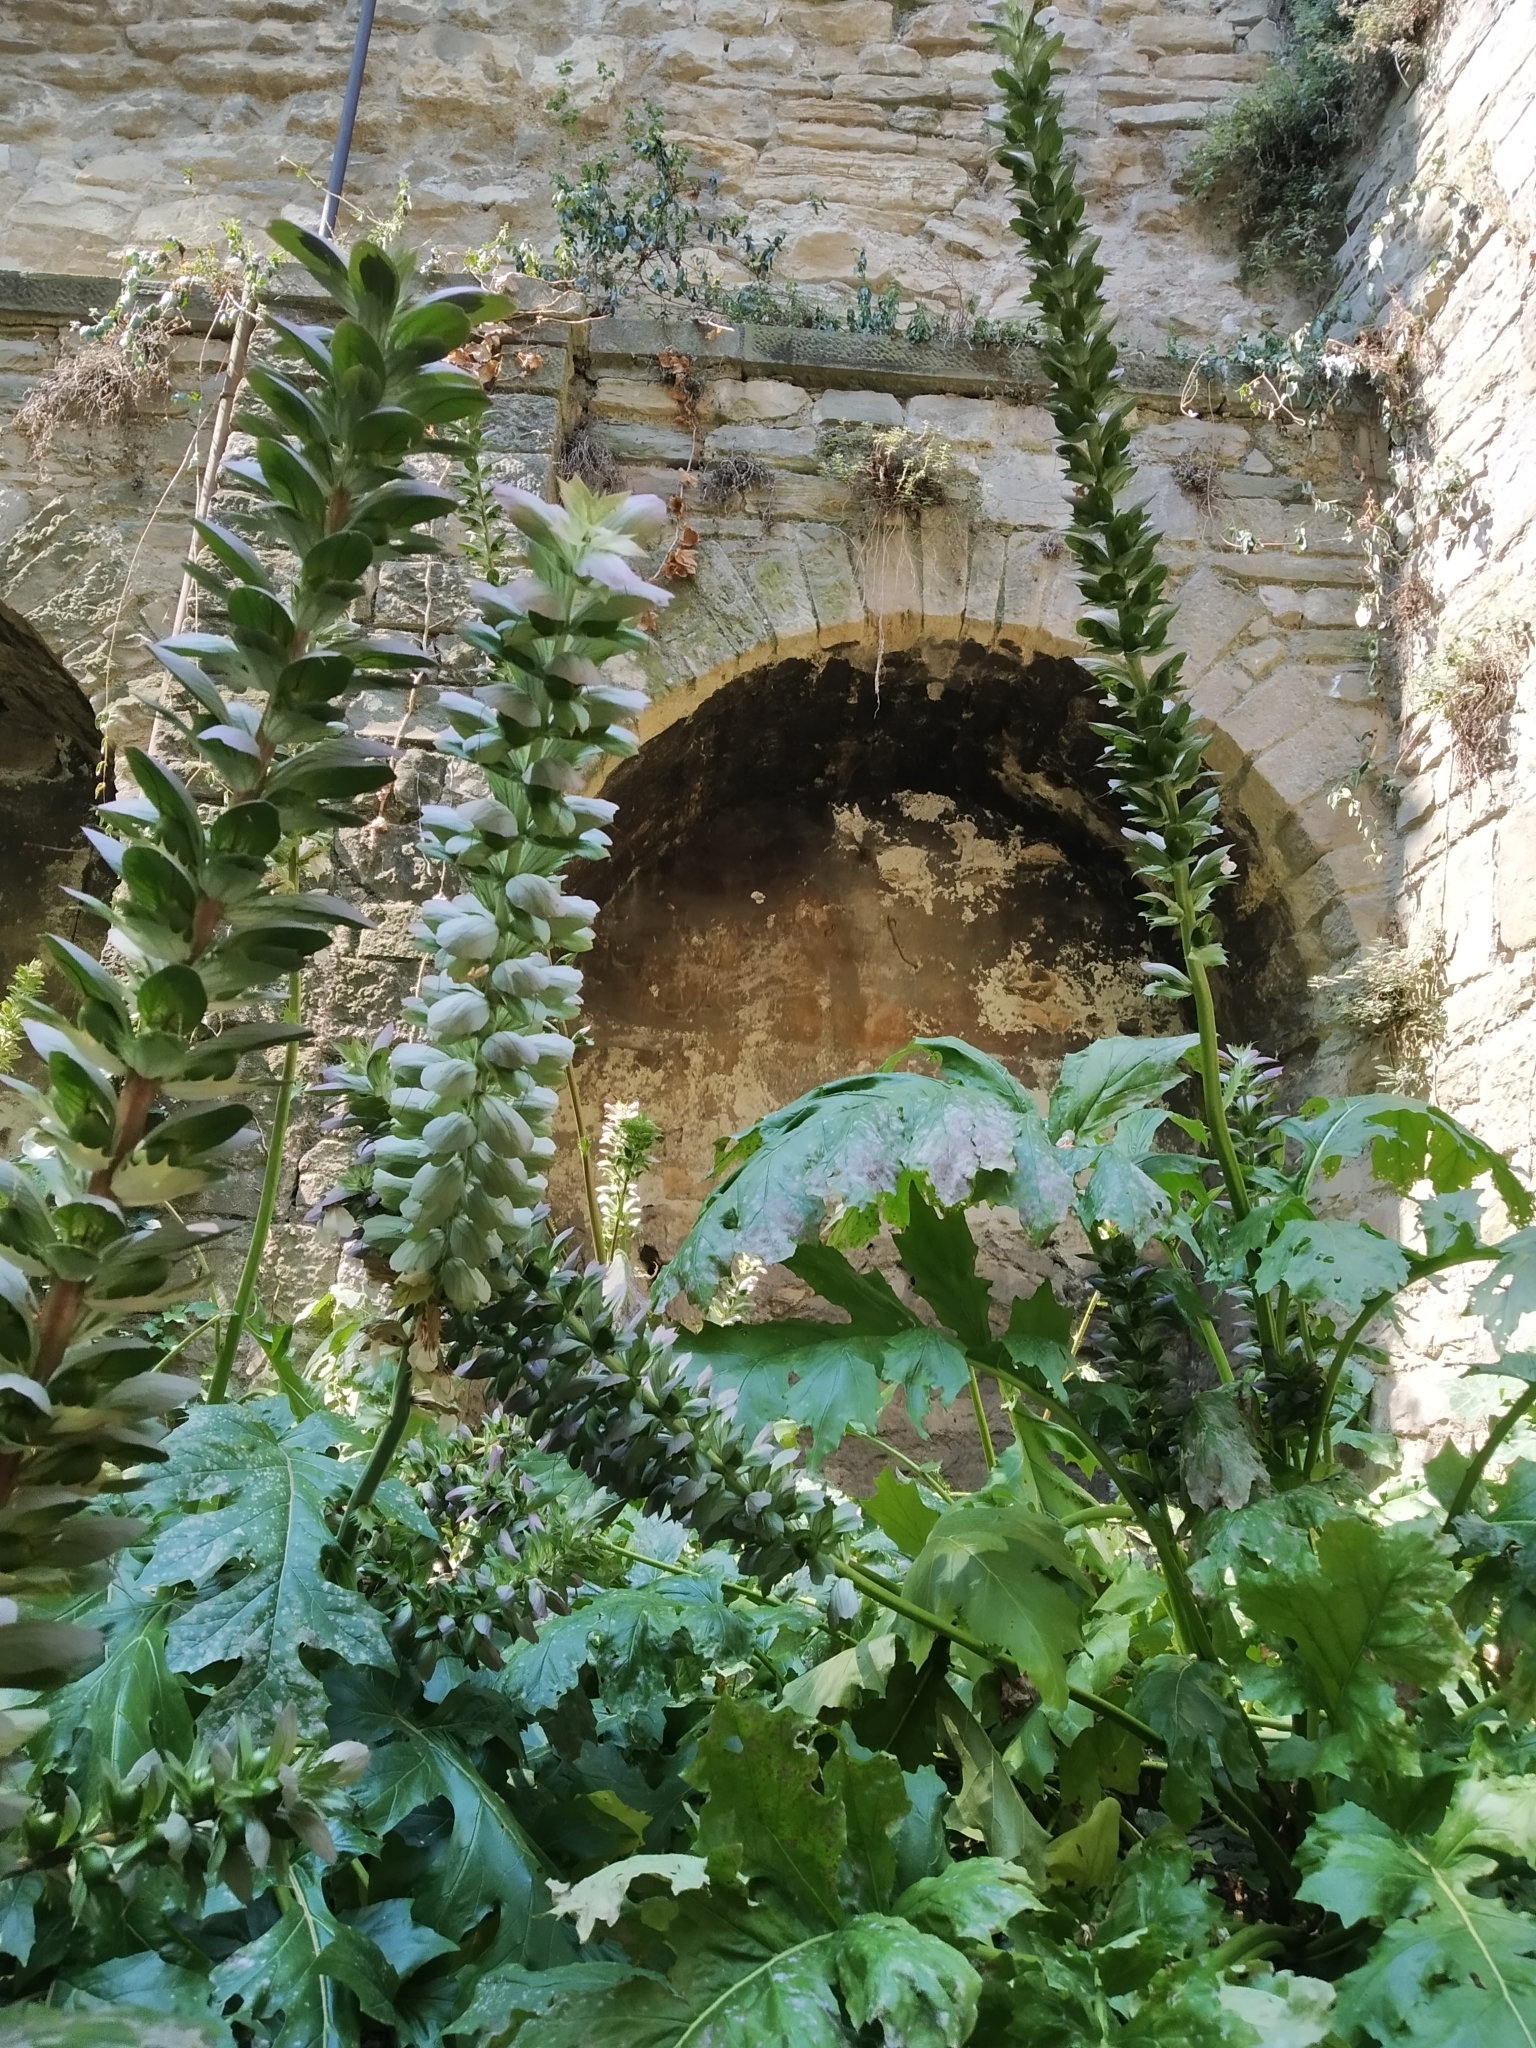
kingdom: Plantae
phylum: Tracheophyta
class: Magnoliopsida
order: Lamiales
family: Acanthaceae
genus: Acanthus
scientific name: Acanthus mollis
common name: Bear's-breech
